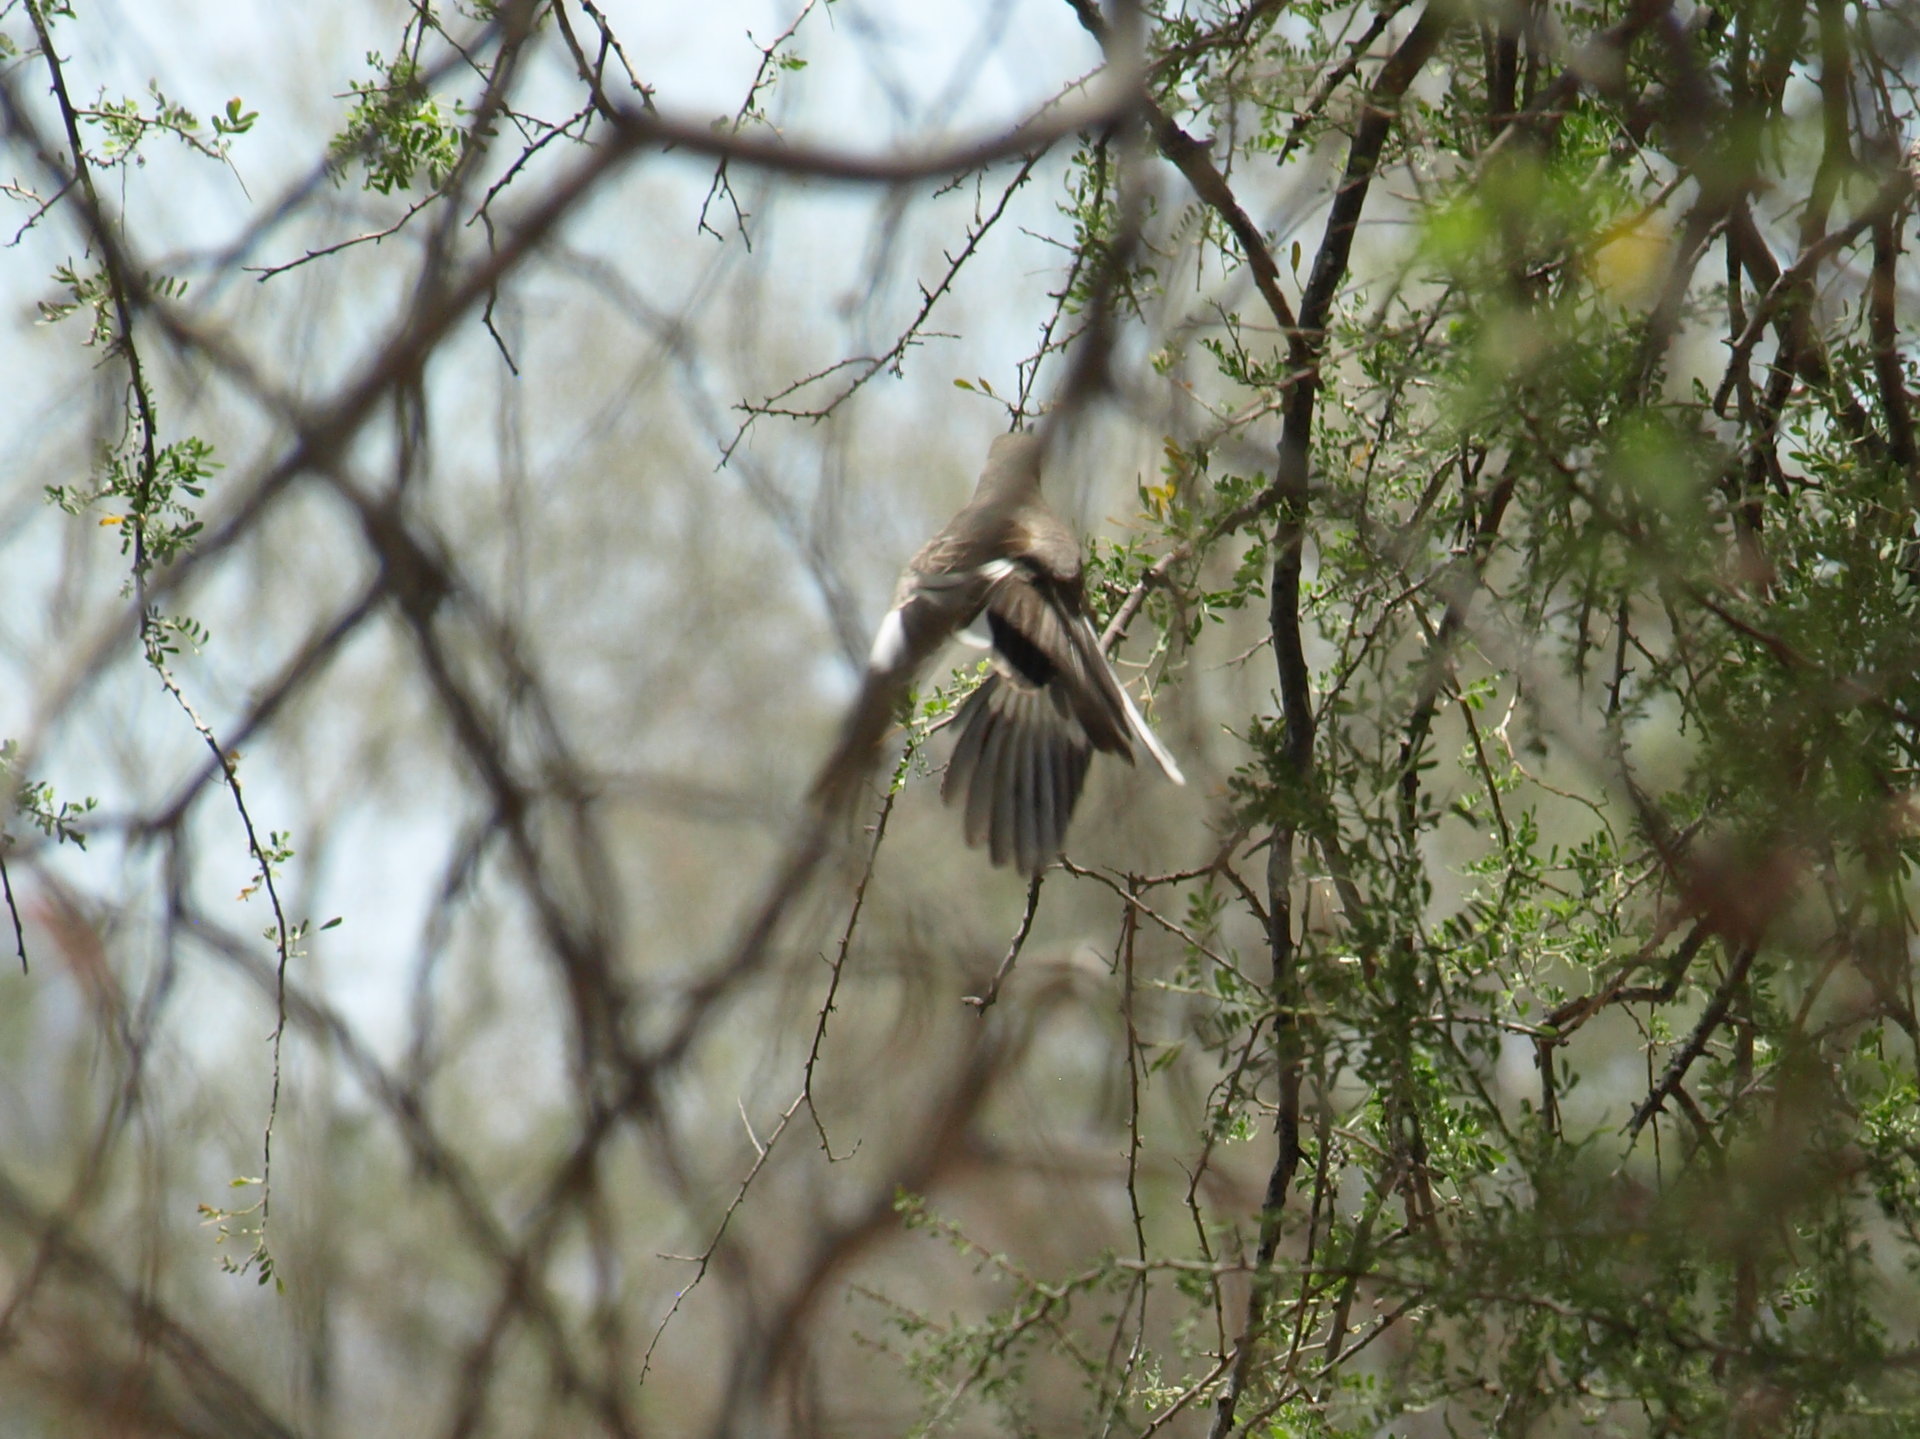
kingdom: Animalia
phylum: Chordata
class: Aves
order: Passeriformes
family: Mimidae
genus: Mimus
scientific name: Mimus polyglottos
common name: Northern mockingbird
